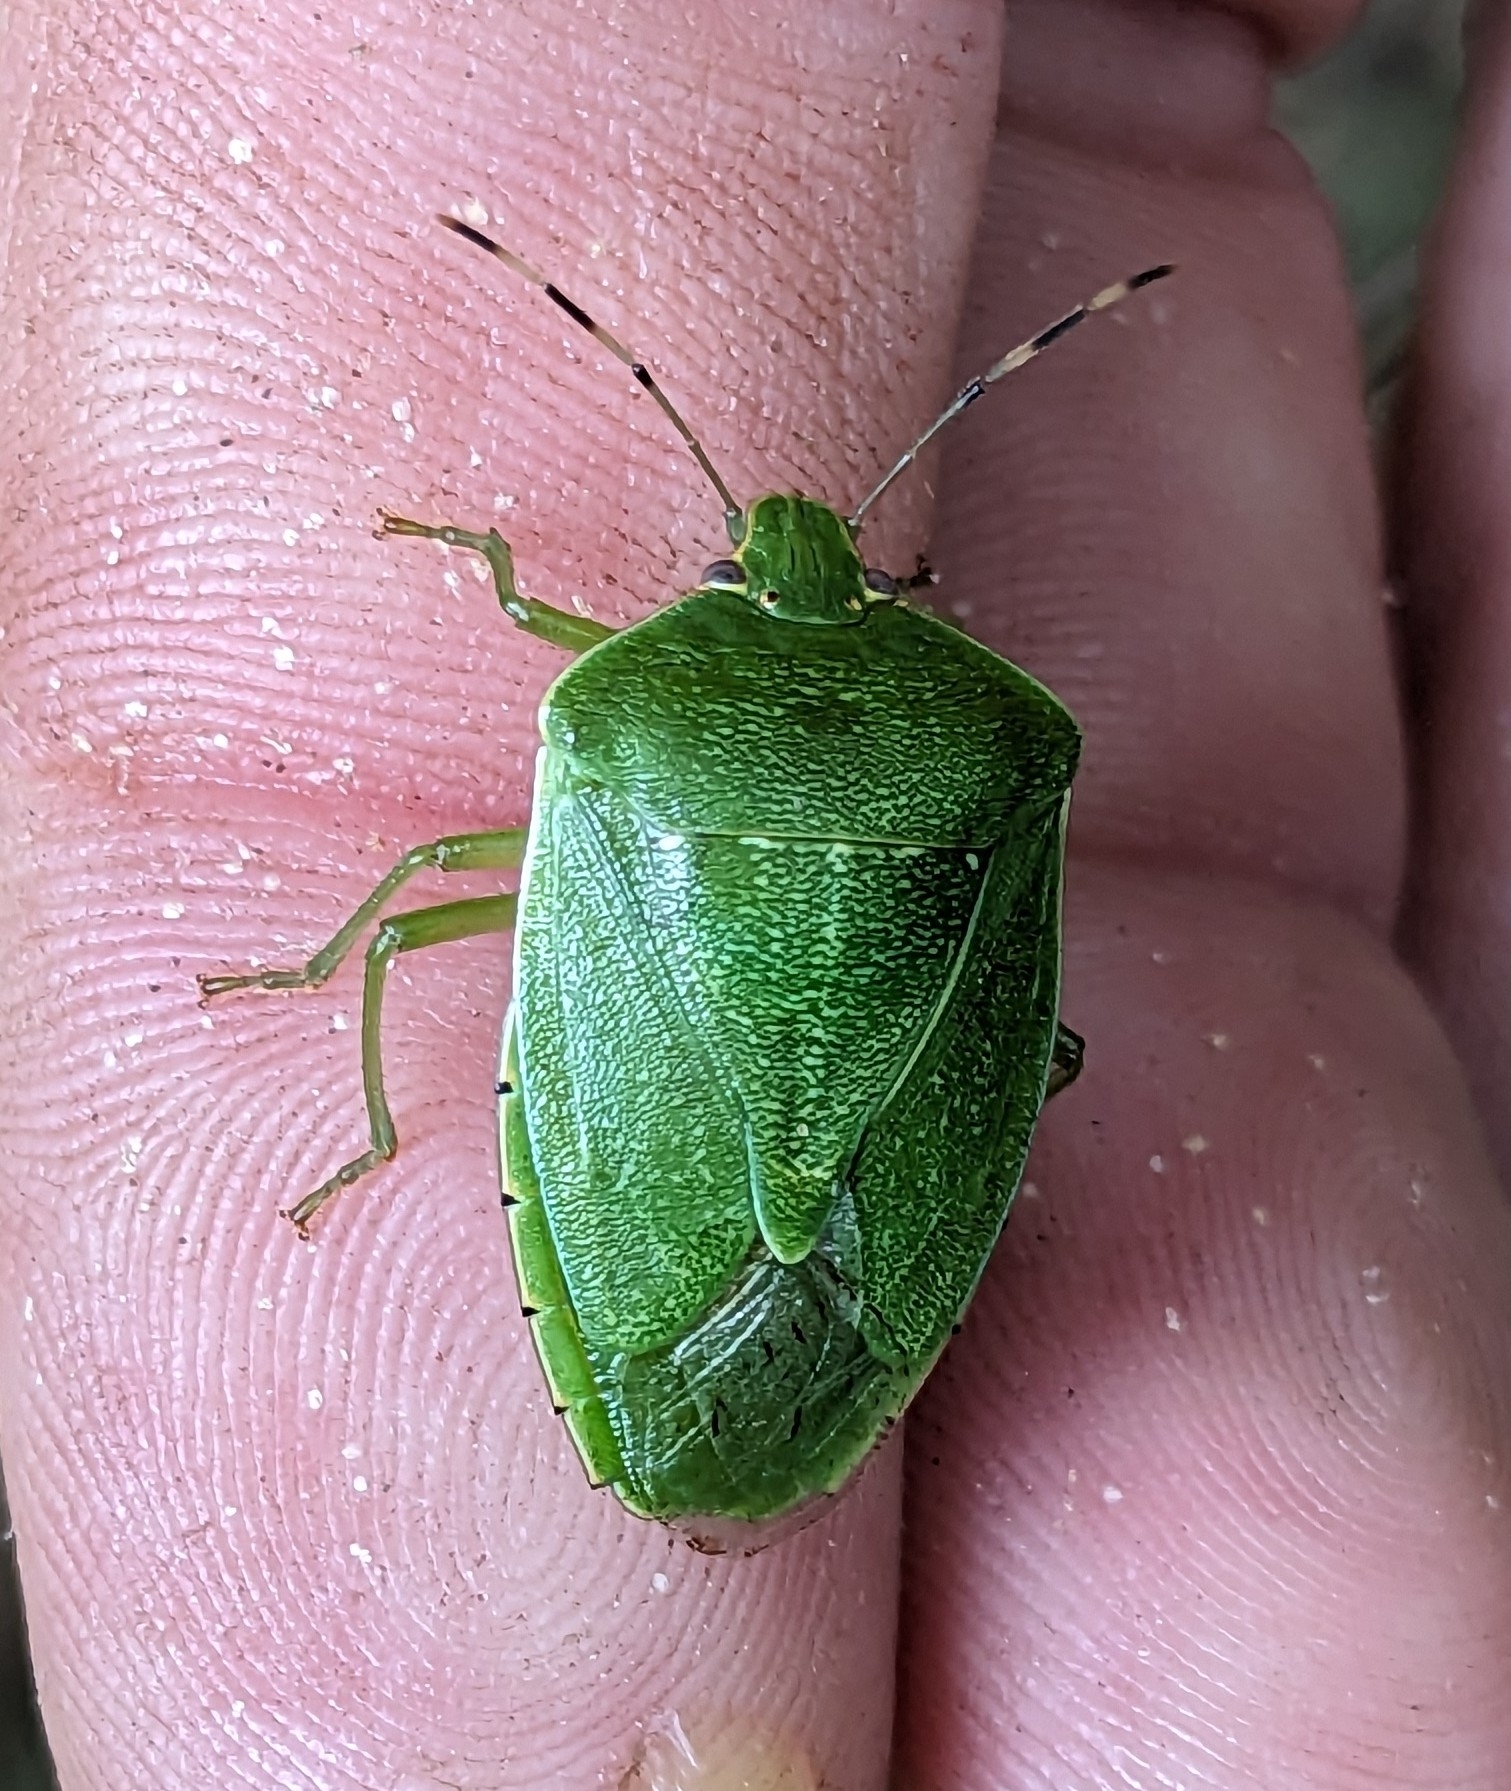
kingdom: Animalia
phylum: Arthropoda
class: Insecta
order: Hemiptera
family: Pentatomidae
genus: Chinavia
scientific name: Chinavia hilaris
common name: Green stink bug
